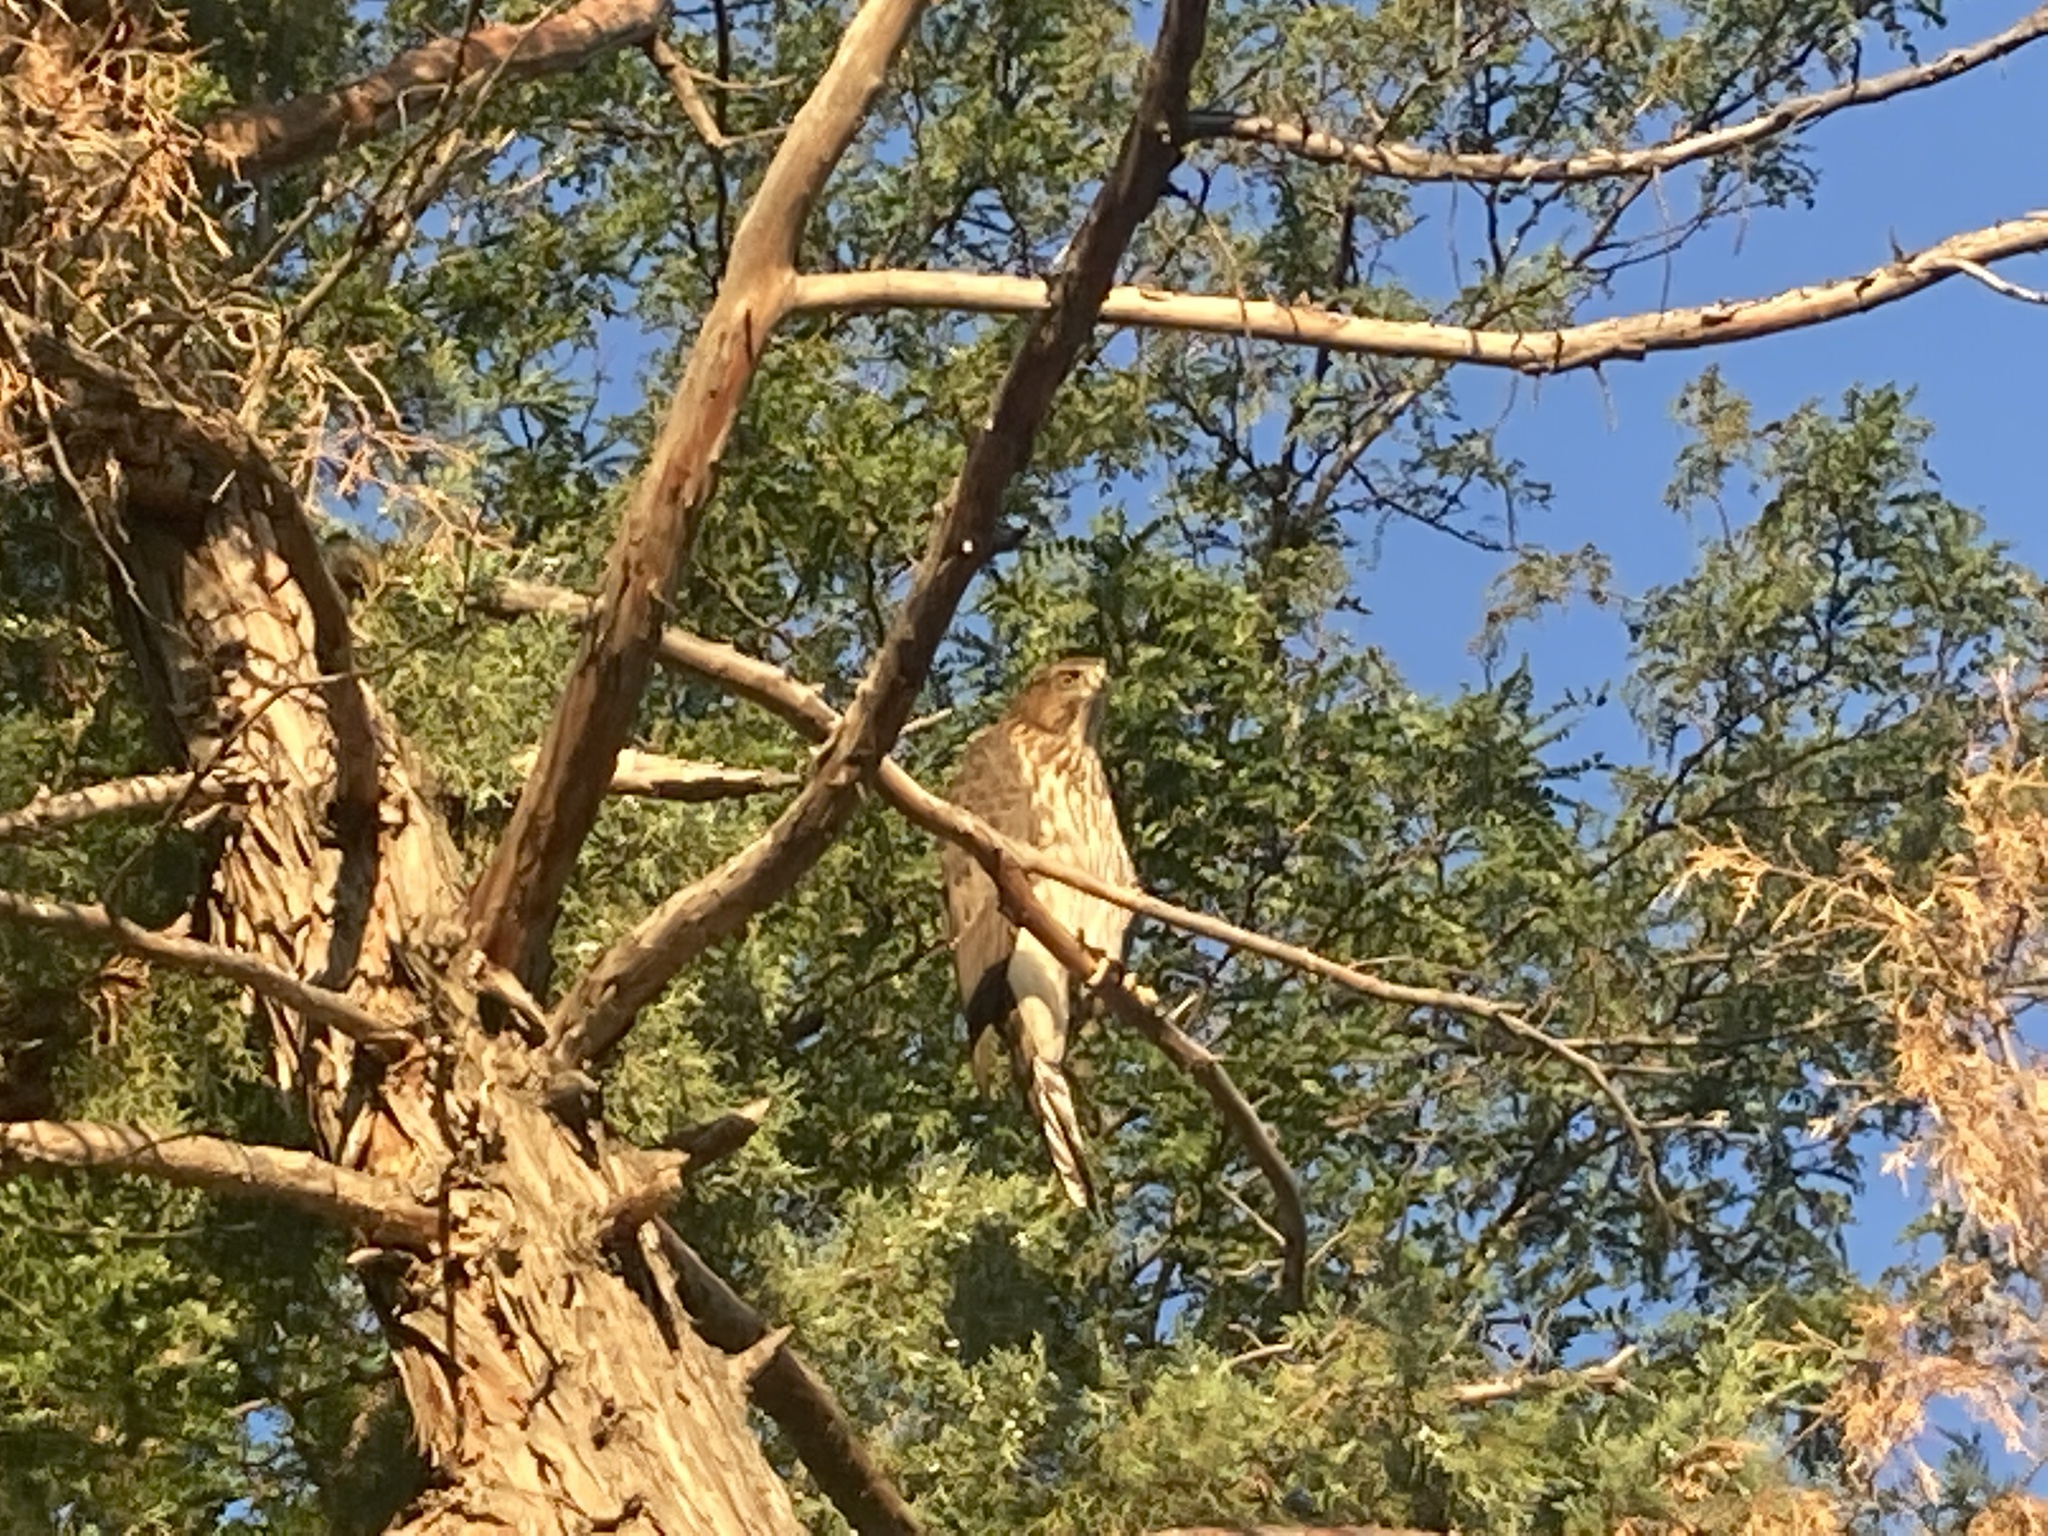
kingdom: Animalia
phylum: Chordata
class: Aves
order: Accipitriformes
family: Accipitridae
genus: Accipiter
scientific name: Accipiter cooperii
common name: Cooper's hawk
